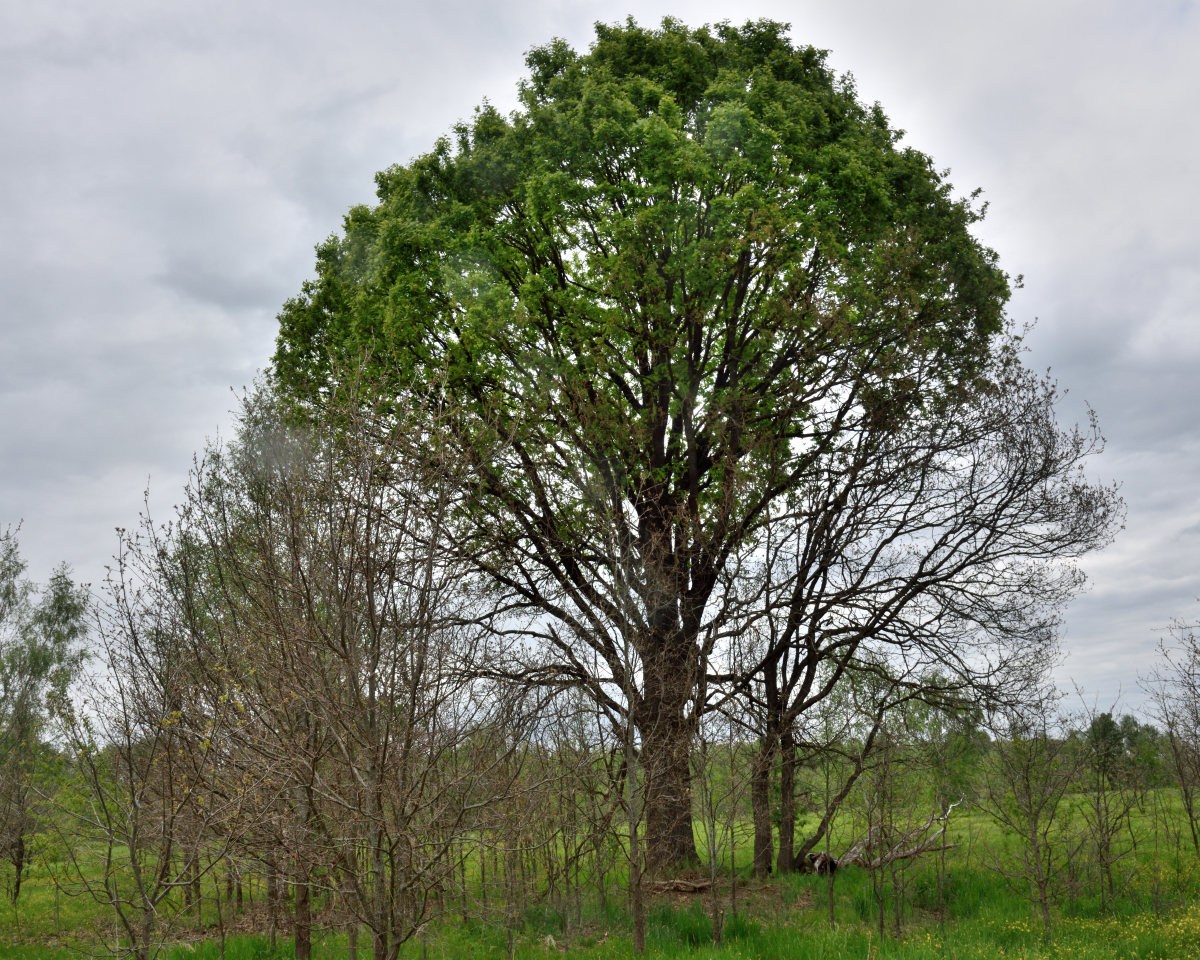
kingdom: Plantae
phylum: Tracheophyta
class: Magnoliopsida
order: Fagales
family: Fagaceae
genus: Quercus
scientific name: Quercus robur
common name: Pedunculate oak
